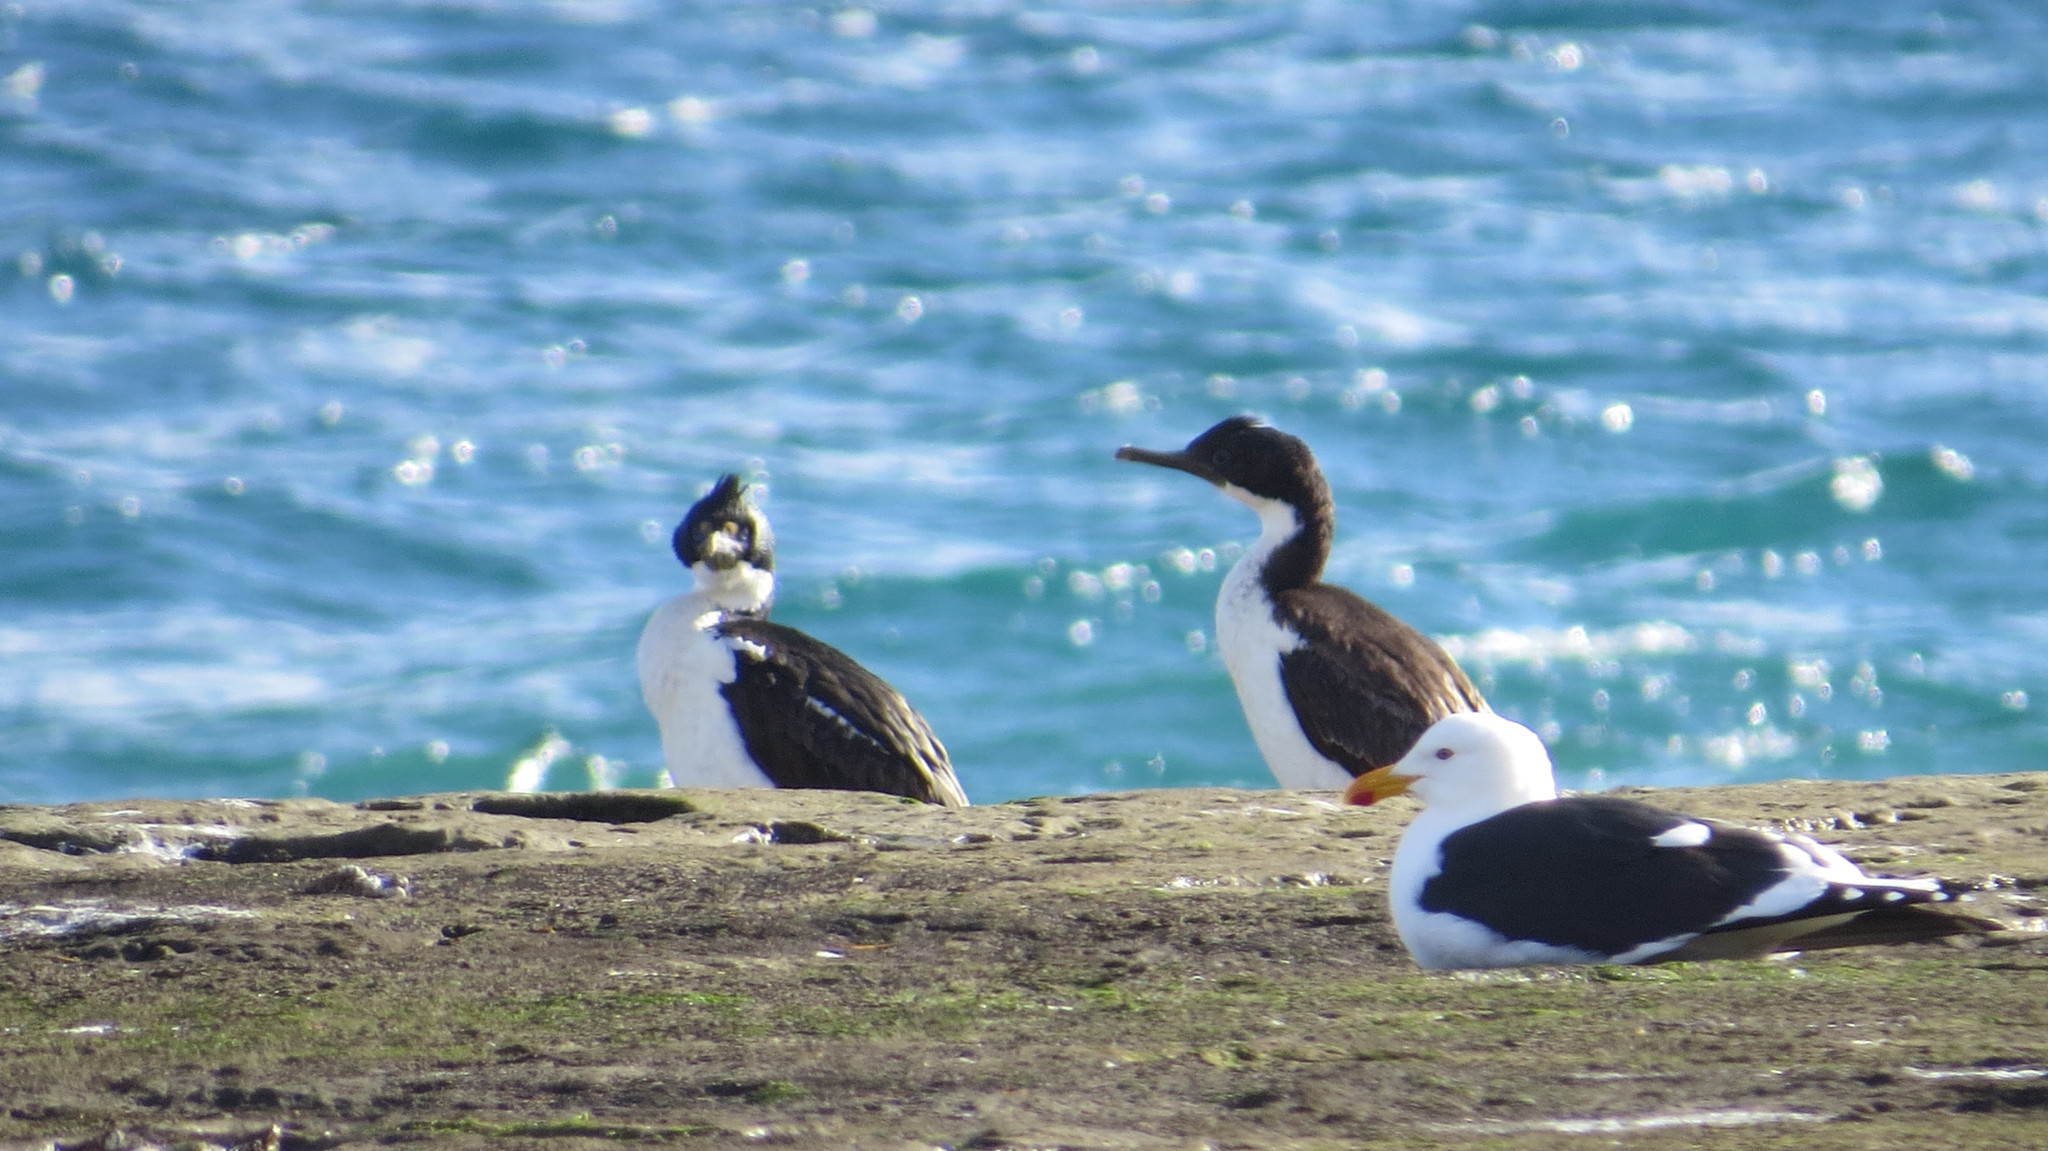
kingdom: Animalia
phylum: Chordata
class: Aves
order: Charadriiformes
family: Laridae
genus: Larus
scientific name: Larus dominicanus
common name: Kelp gull
